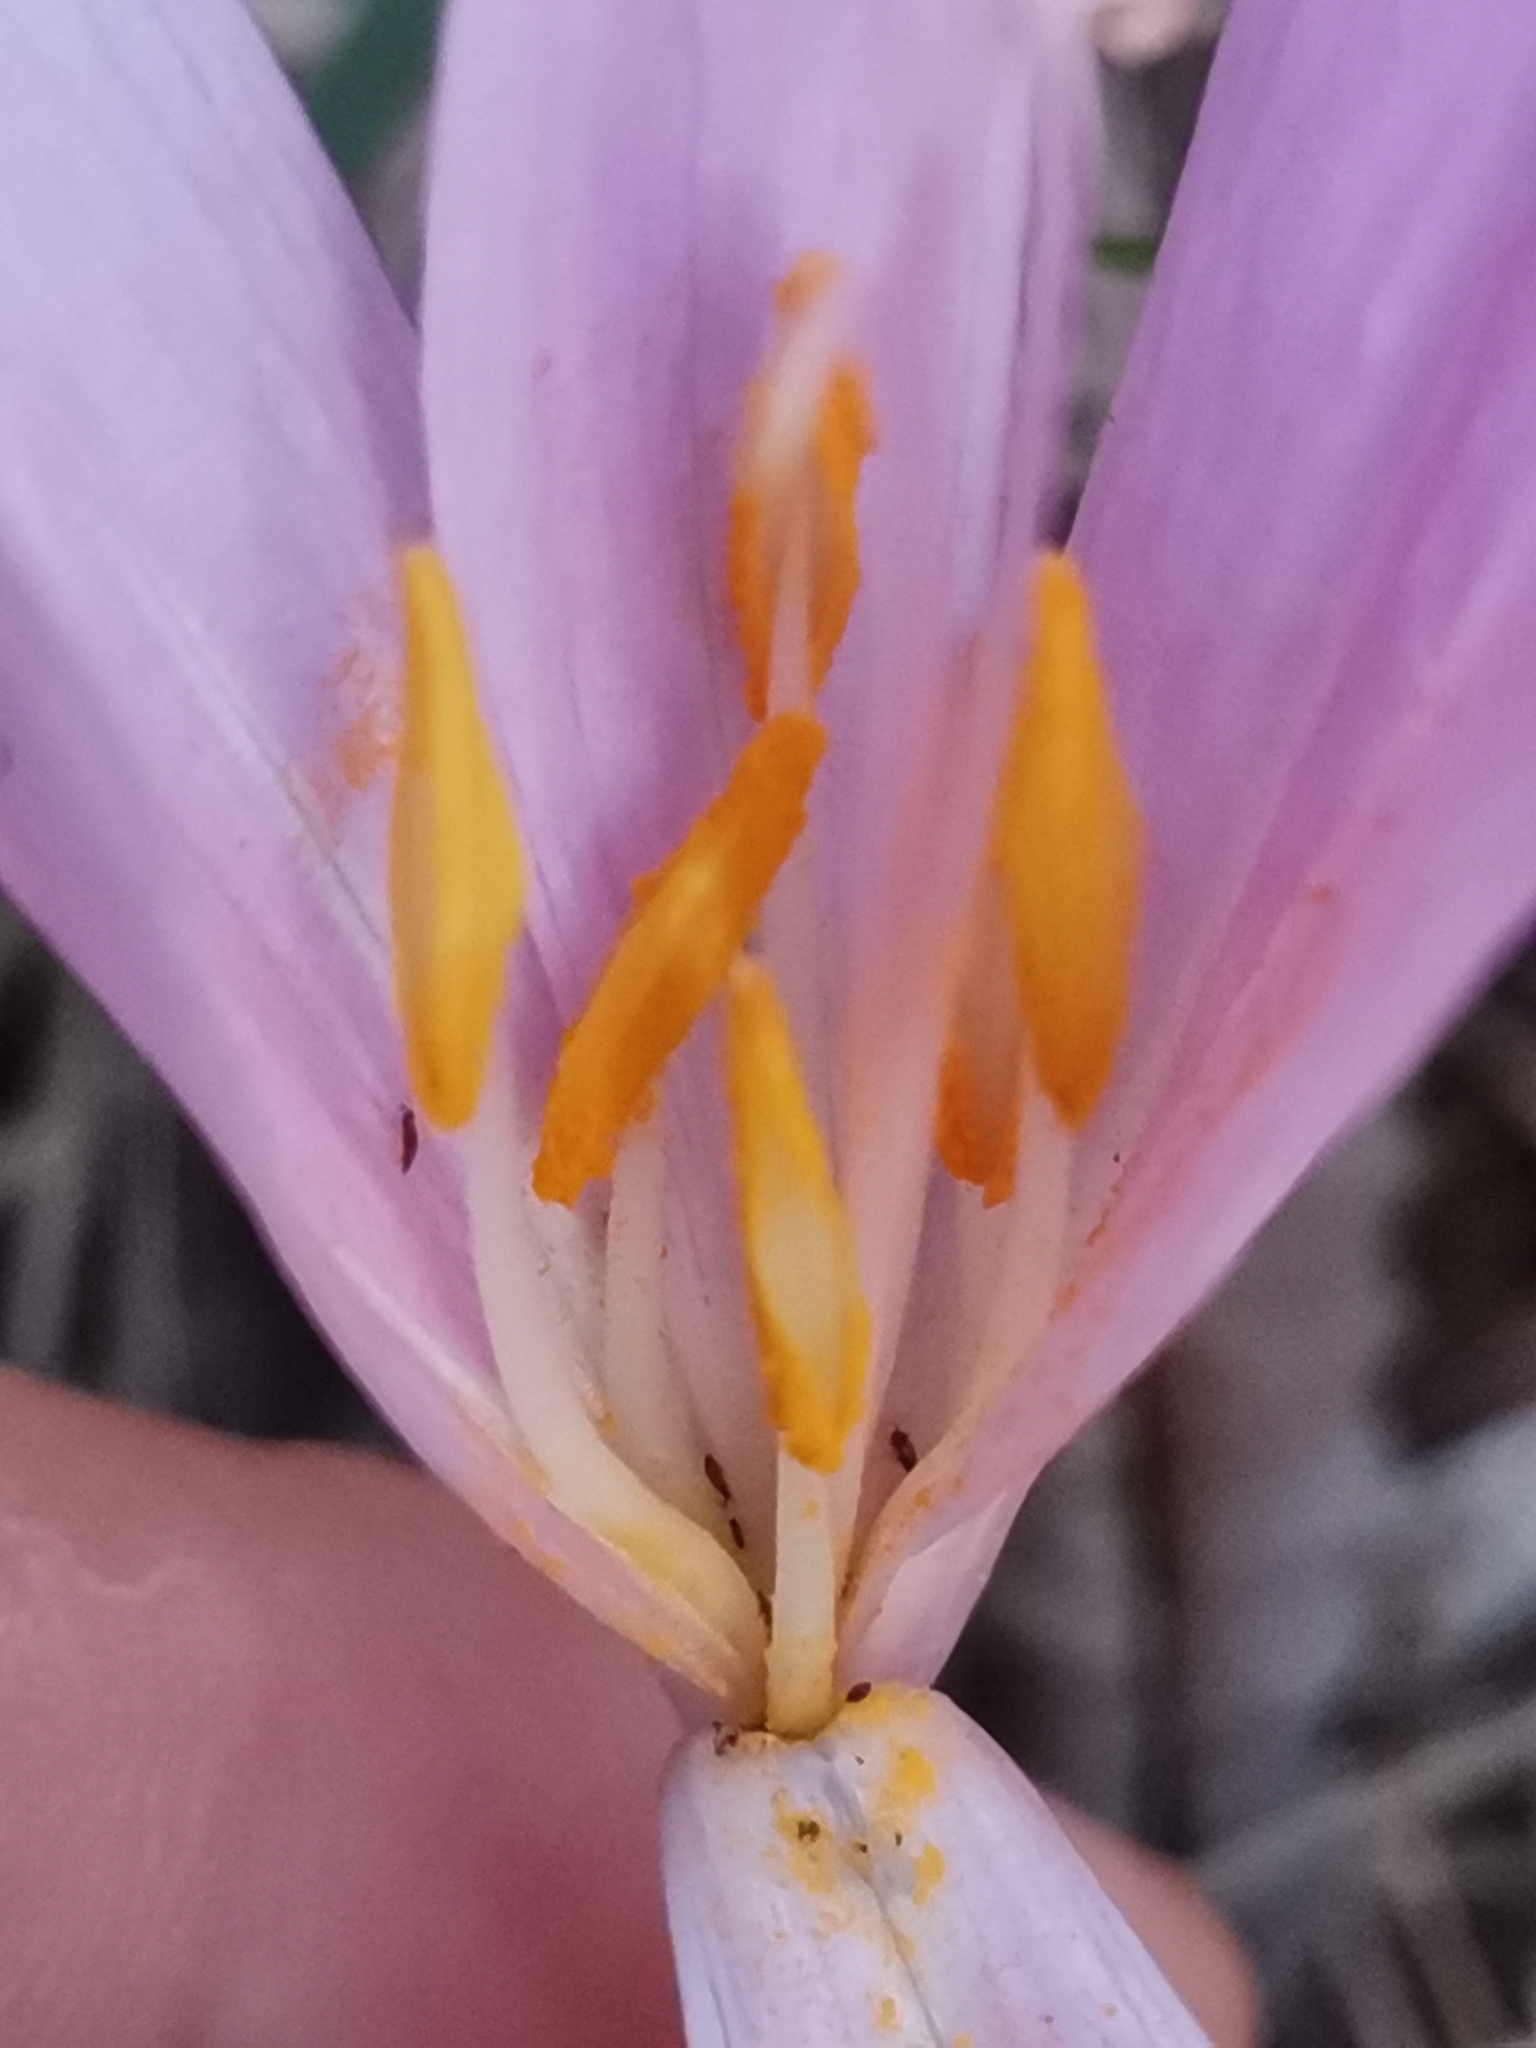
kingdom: Plantae
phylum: Tracheophyta
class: Liliopsida
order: Liliales
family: Colchicaceae
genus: Colchicum
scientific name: Colchicum autumnale
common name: Autumn crocus
